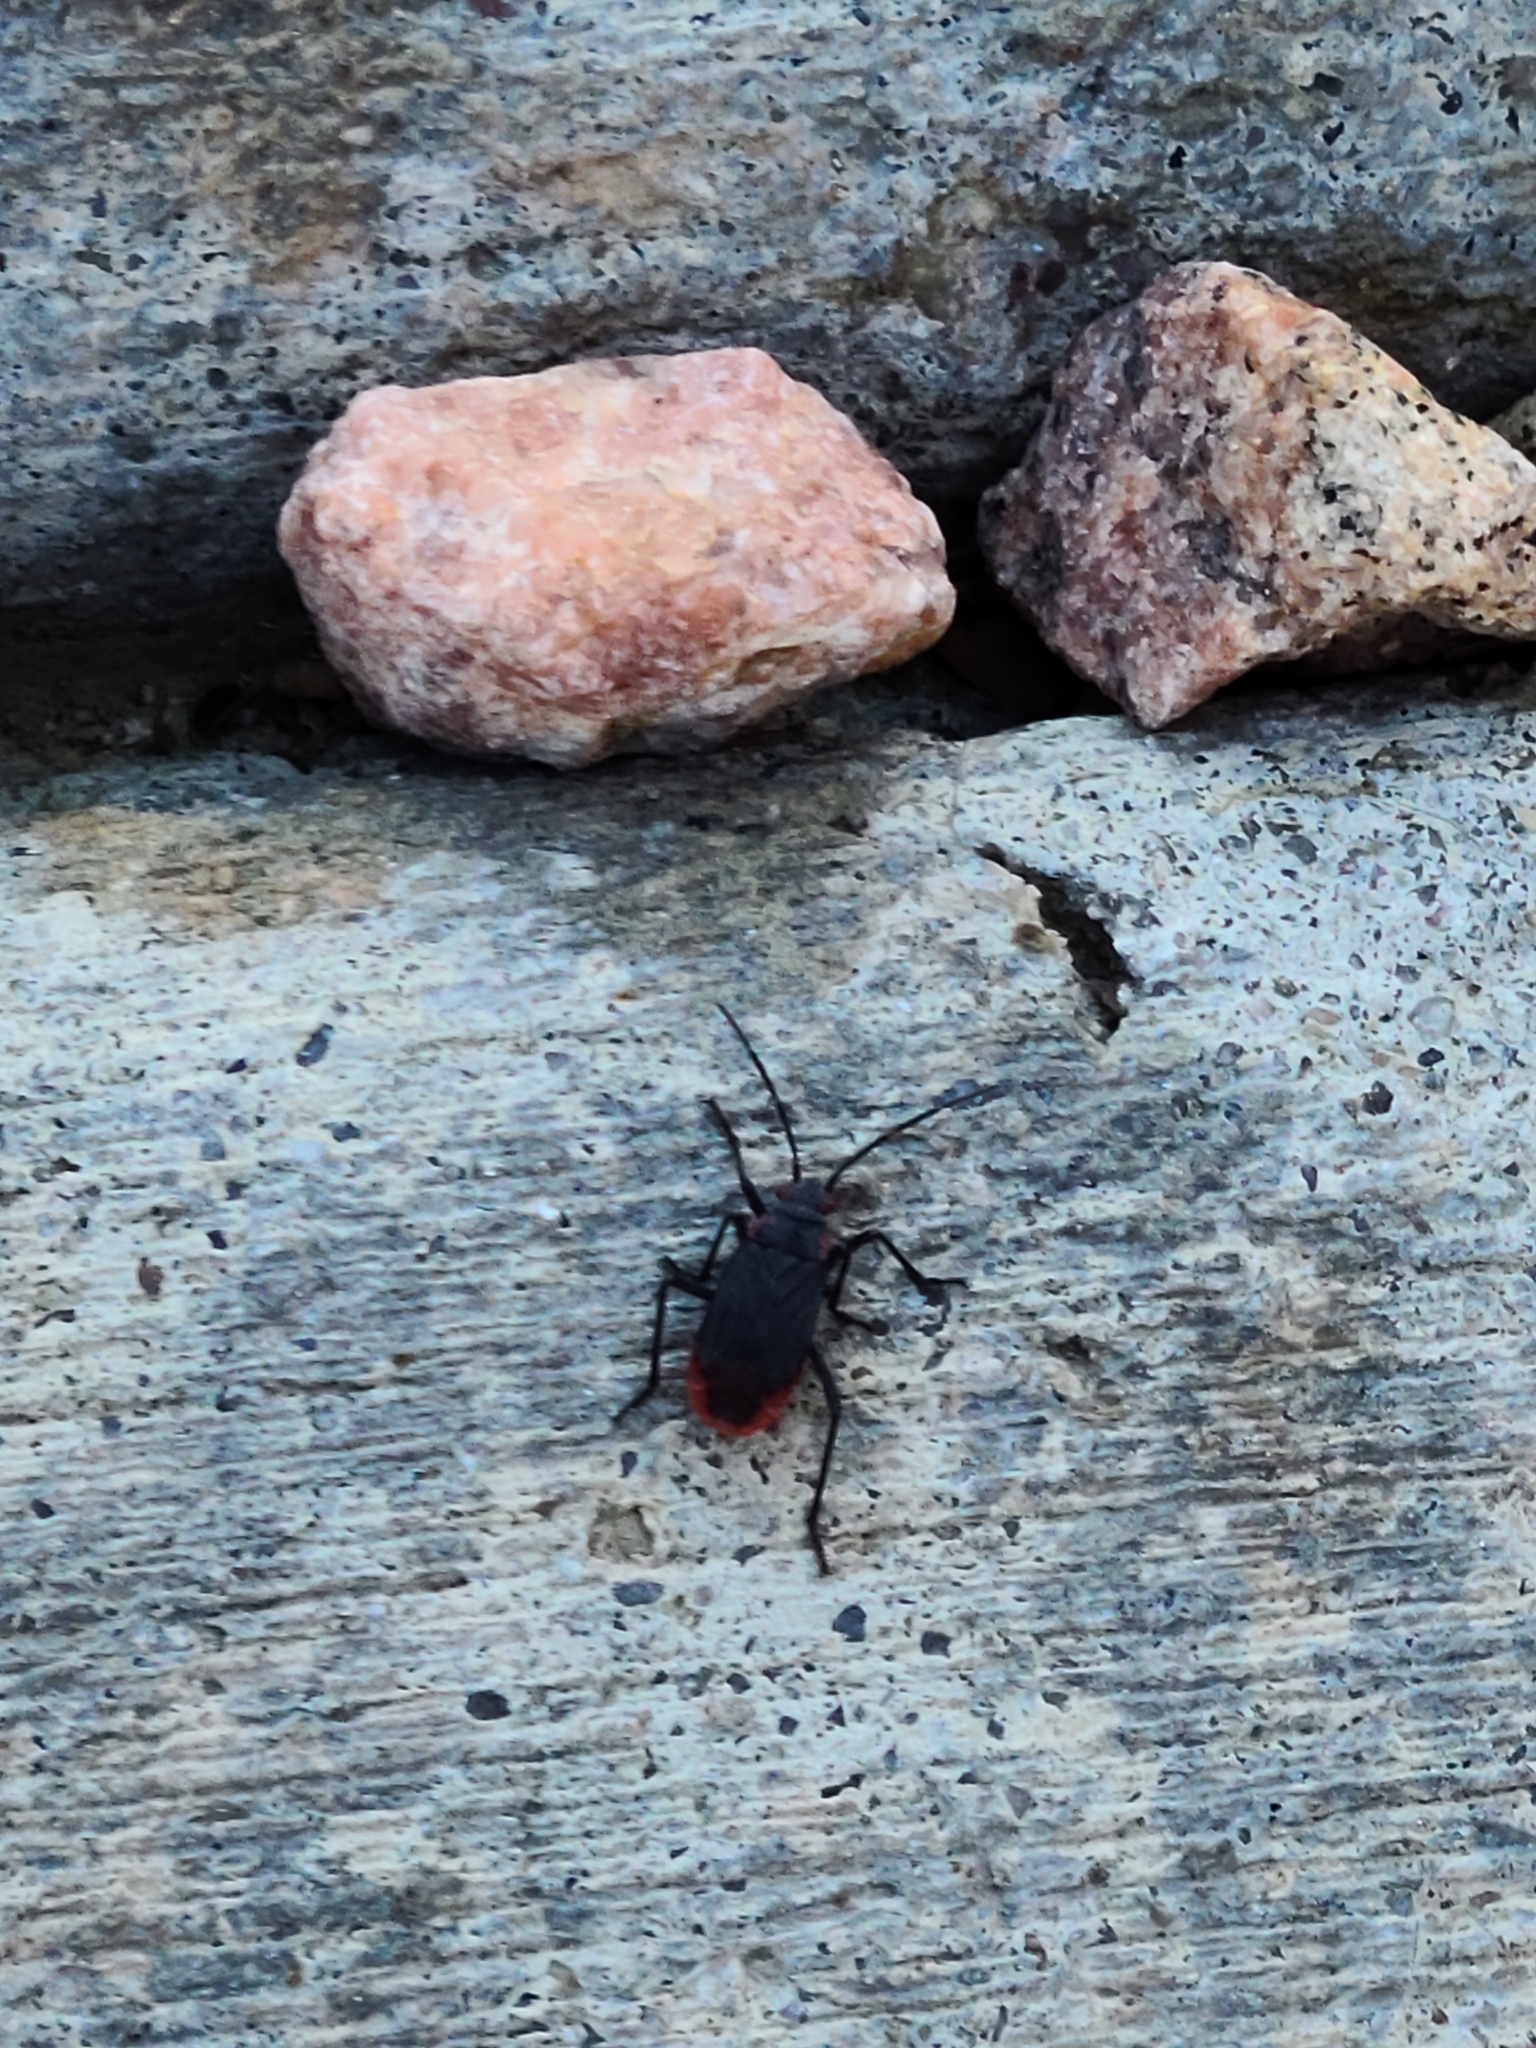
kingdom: Animalia
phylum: Arthropoda
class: Insecta
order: Hemiptera
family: Rhopalidae
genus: Jadera
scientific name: Jadera haematoloma
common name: Red-shouldered bug
